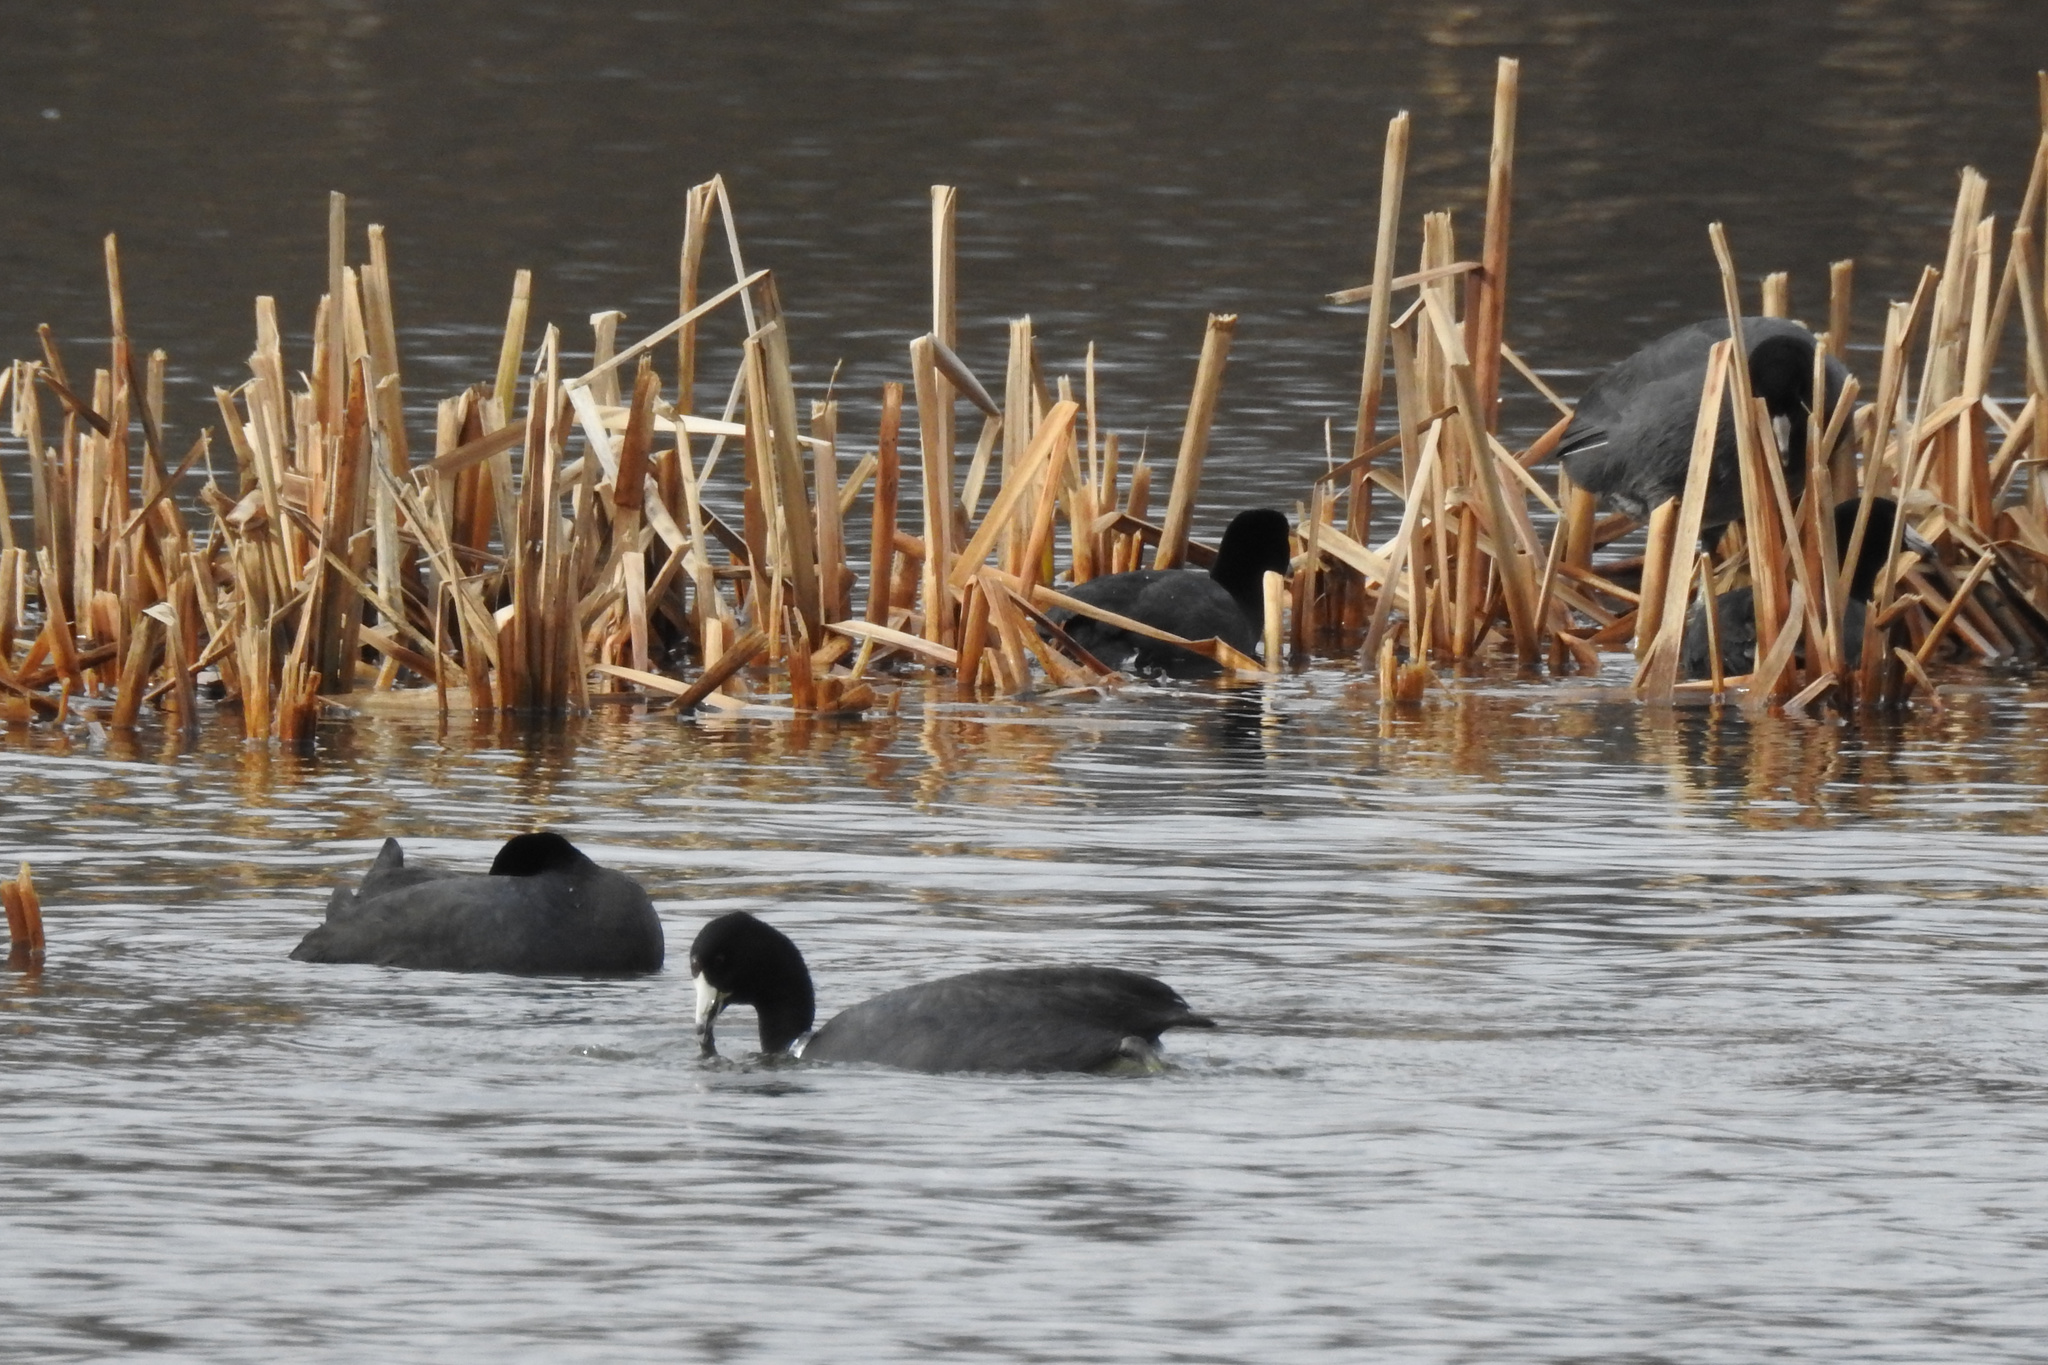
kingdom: Animalia
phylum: Chordata
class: Aves
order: Gruiformes
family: Rallidae
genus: Fulica
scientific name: Fulica americana
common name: American coot
